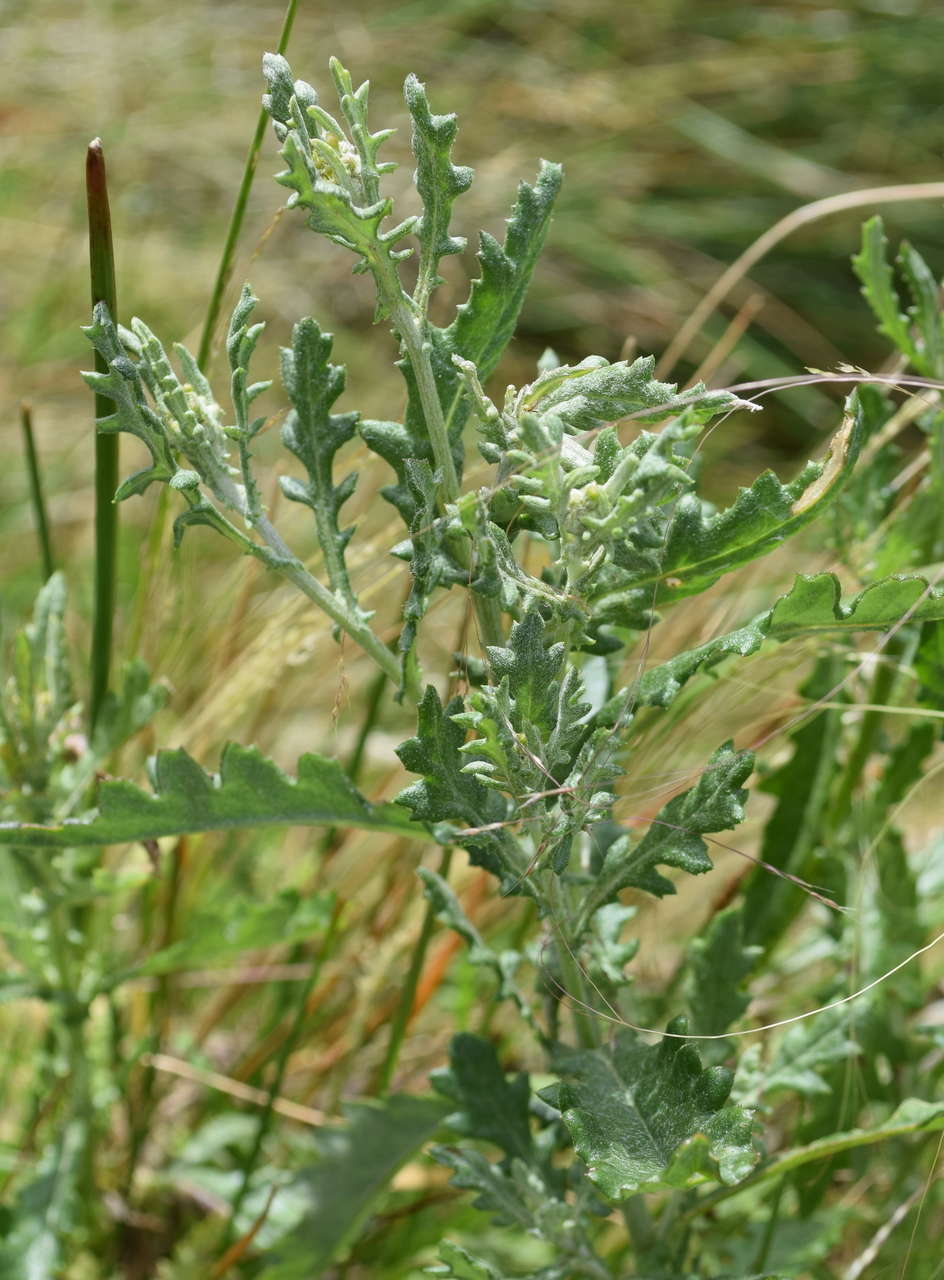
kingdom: Plantae
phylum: Tracheophyta
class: Magnoliopsida
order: Asterales
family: Asteraceae
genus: Senecio
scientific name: Senecio glomeratus
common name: Cutleaf burnweed
